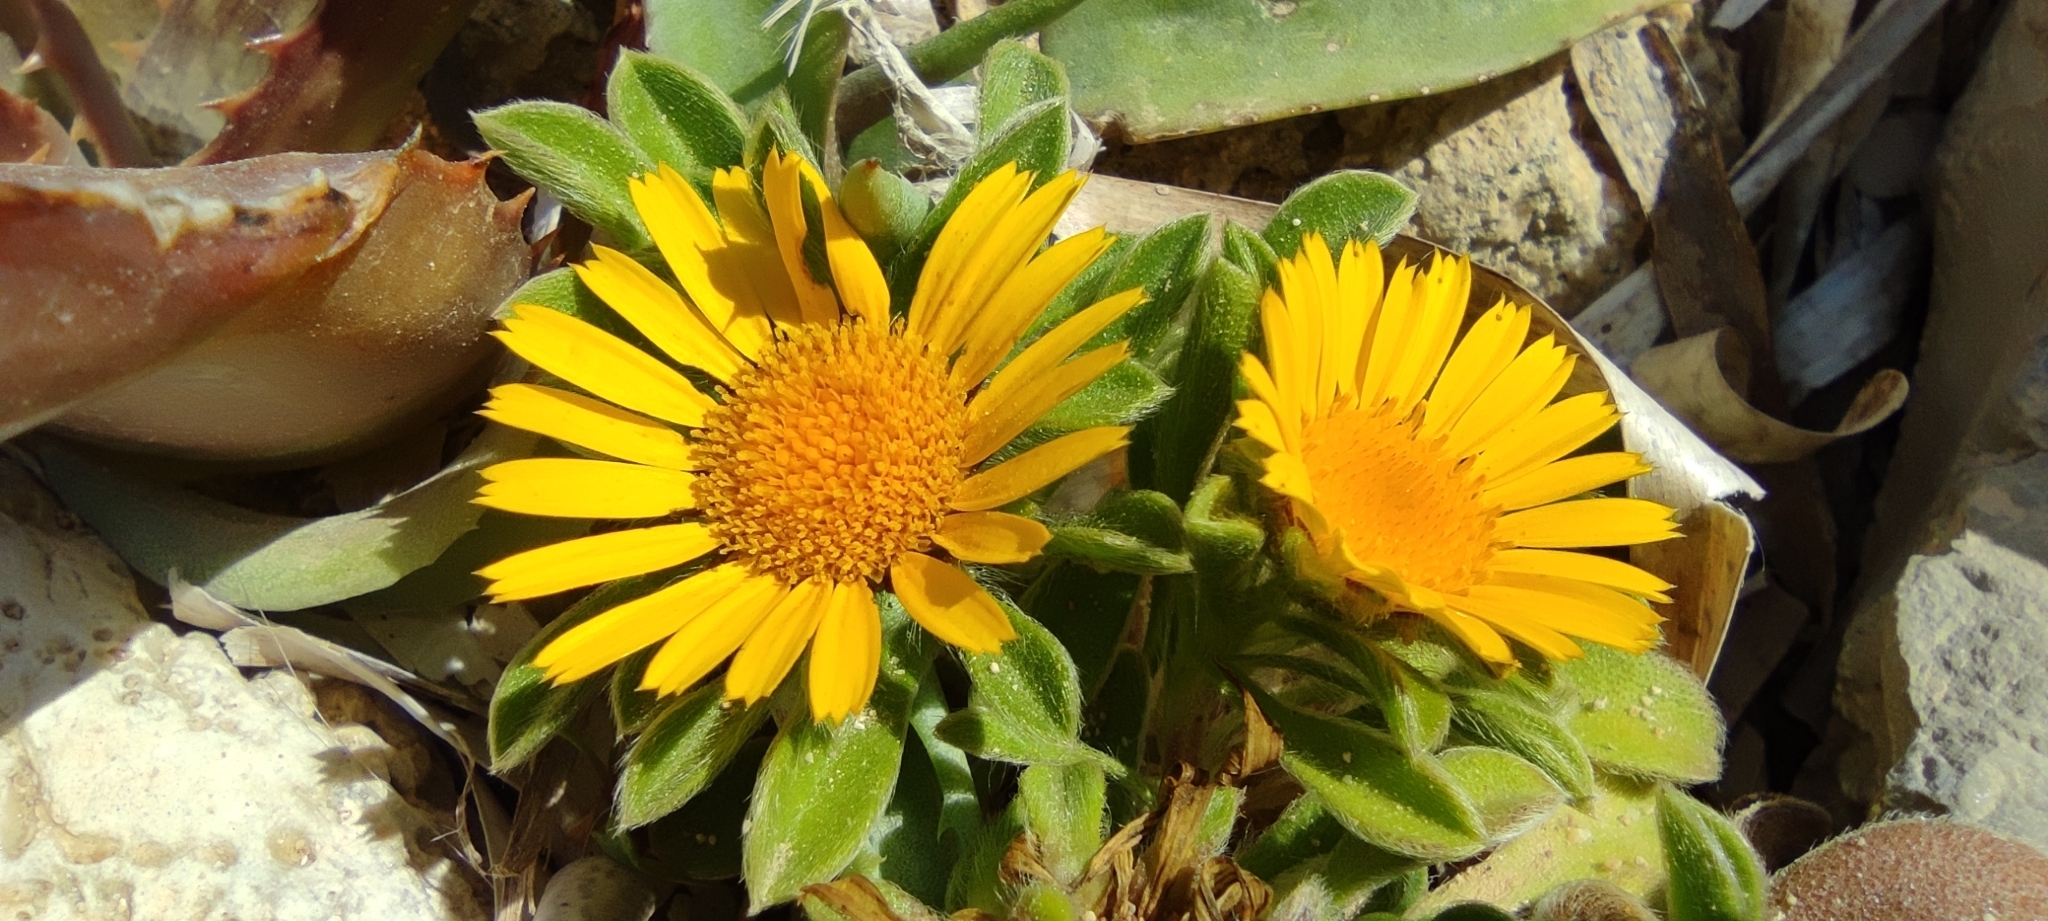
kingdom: Plantae
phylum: Tracheophyta
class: Magnoliopsida
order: Asterales
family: Asteraceae
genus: Pallenis
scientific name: Pallenis maritima
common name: Golden coin daisy
